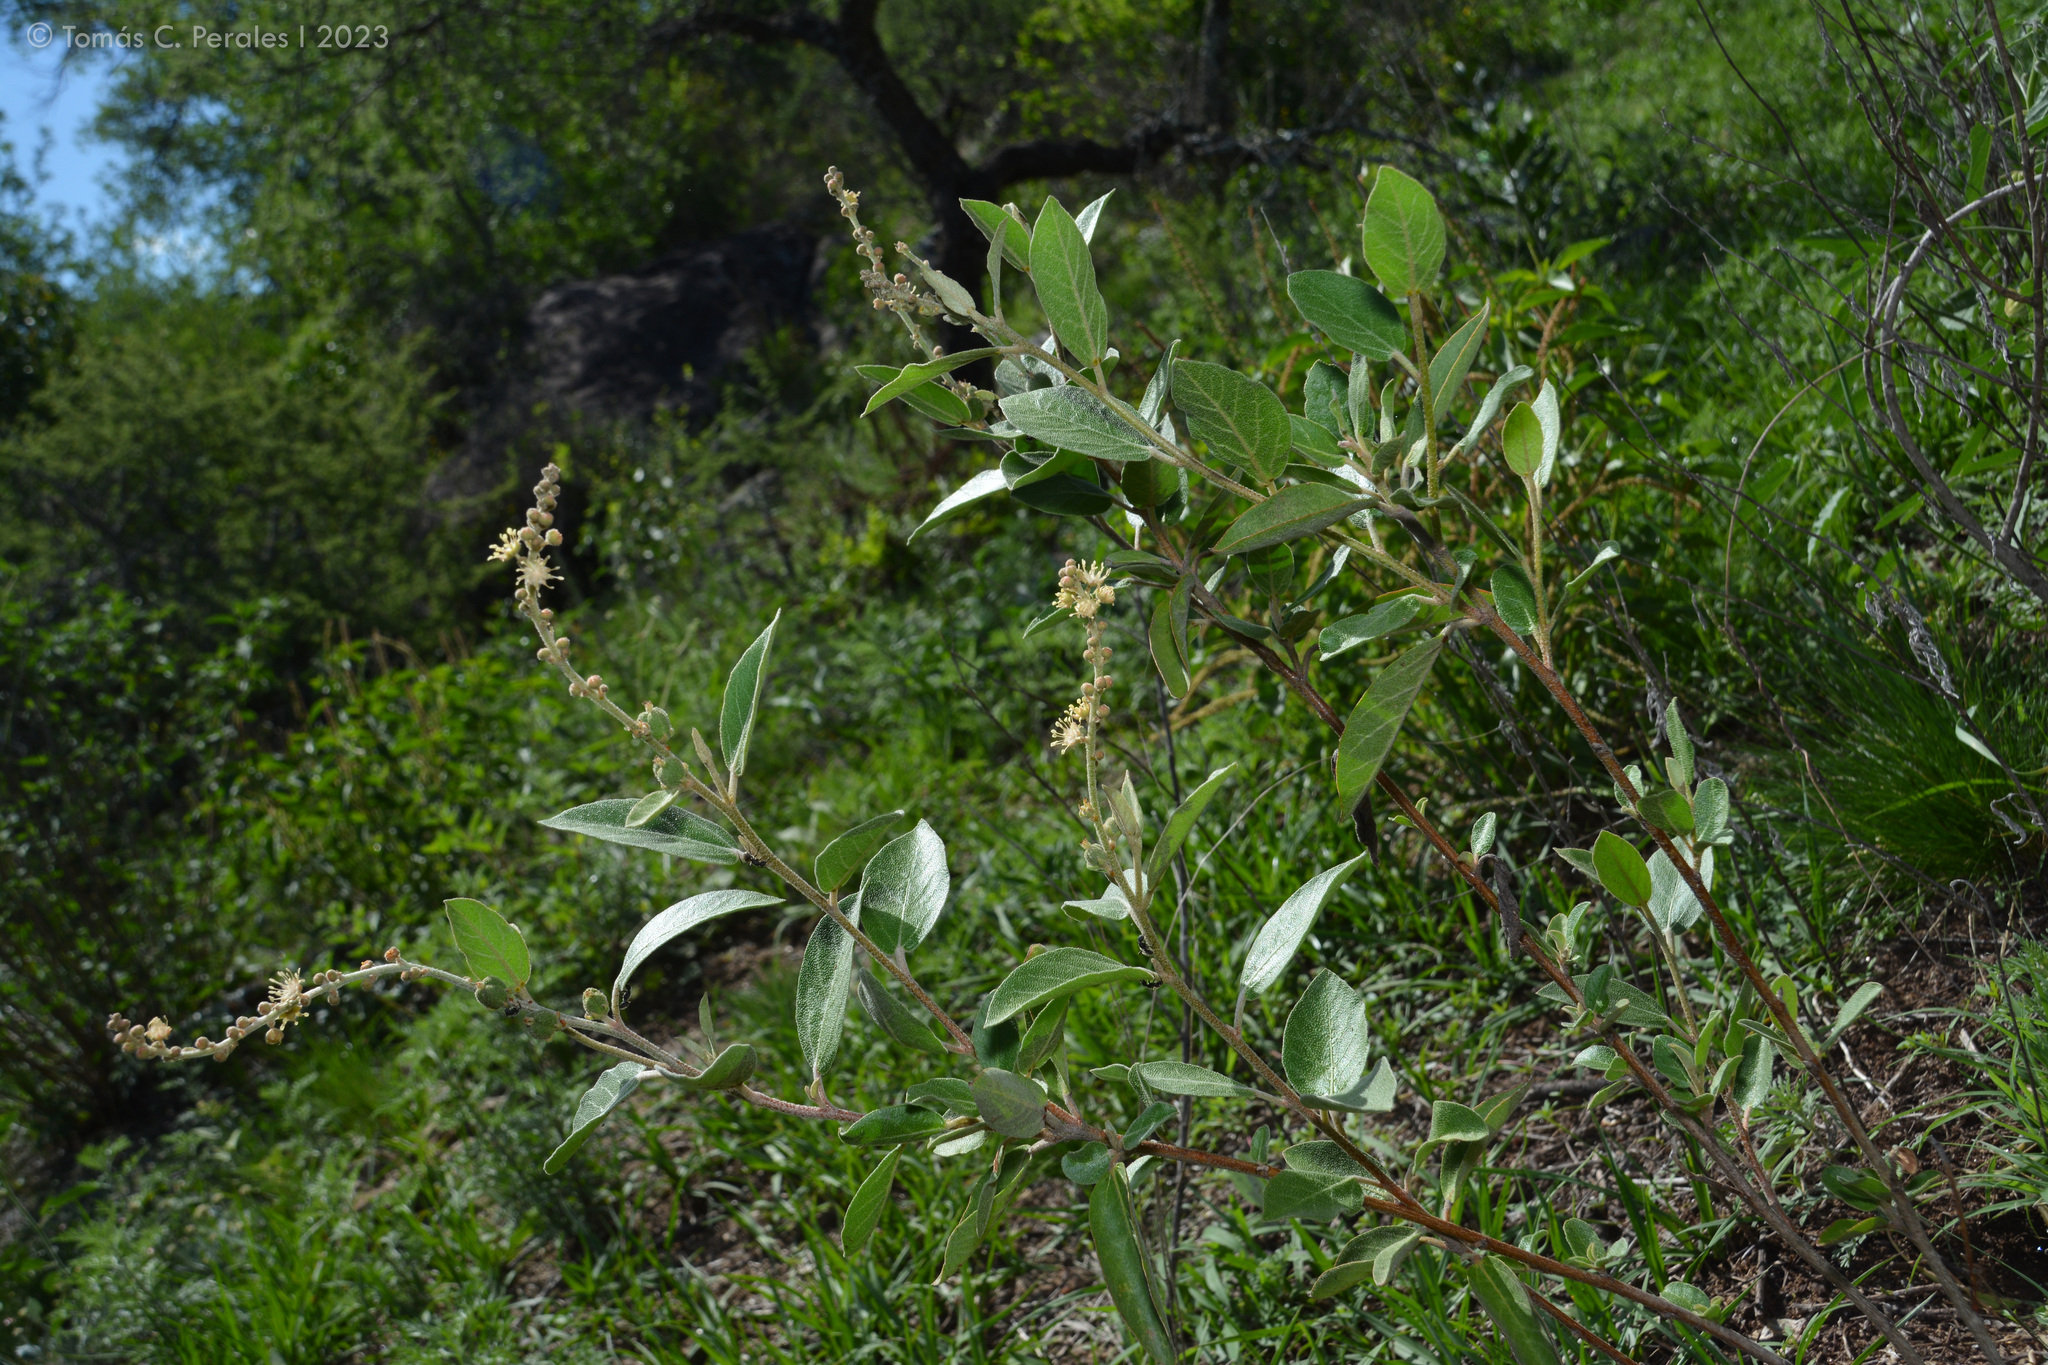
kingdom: Plantae
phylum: Tracheophyta
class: Magnoliopsida
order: Malpighiales
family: Euphorbiaceae
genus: Croton
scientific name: Croton fulvus
